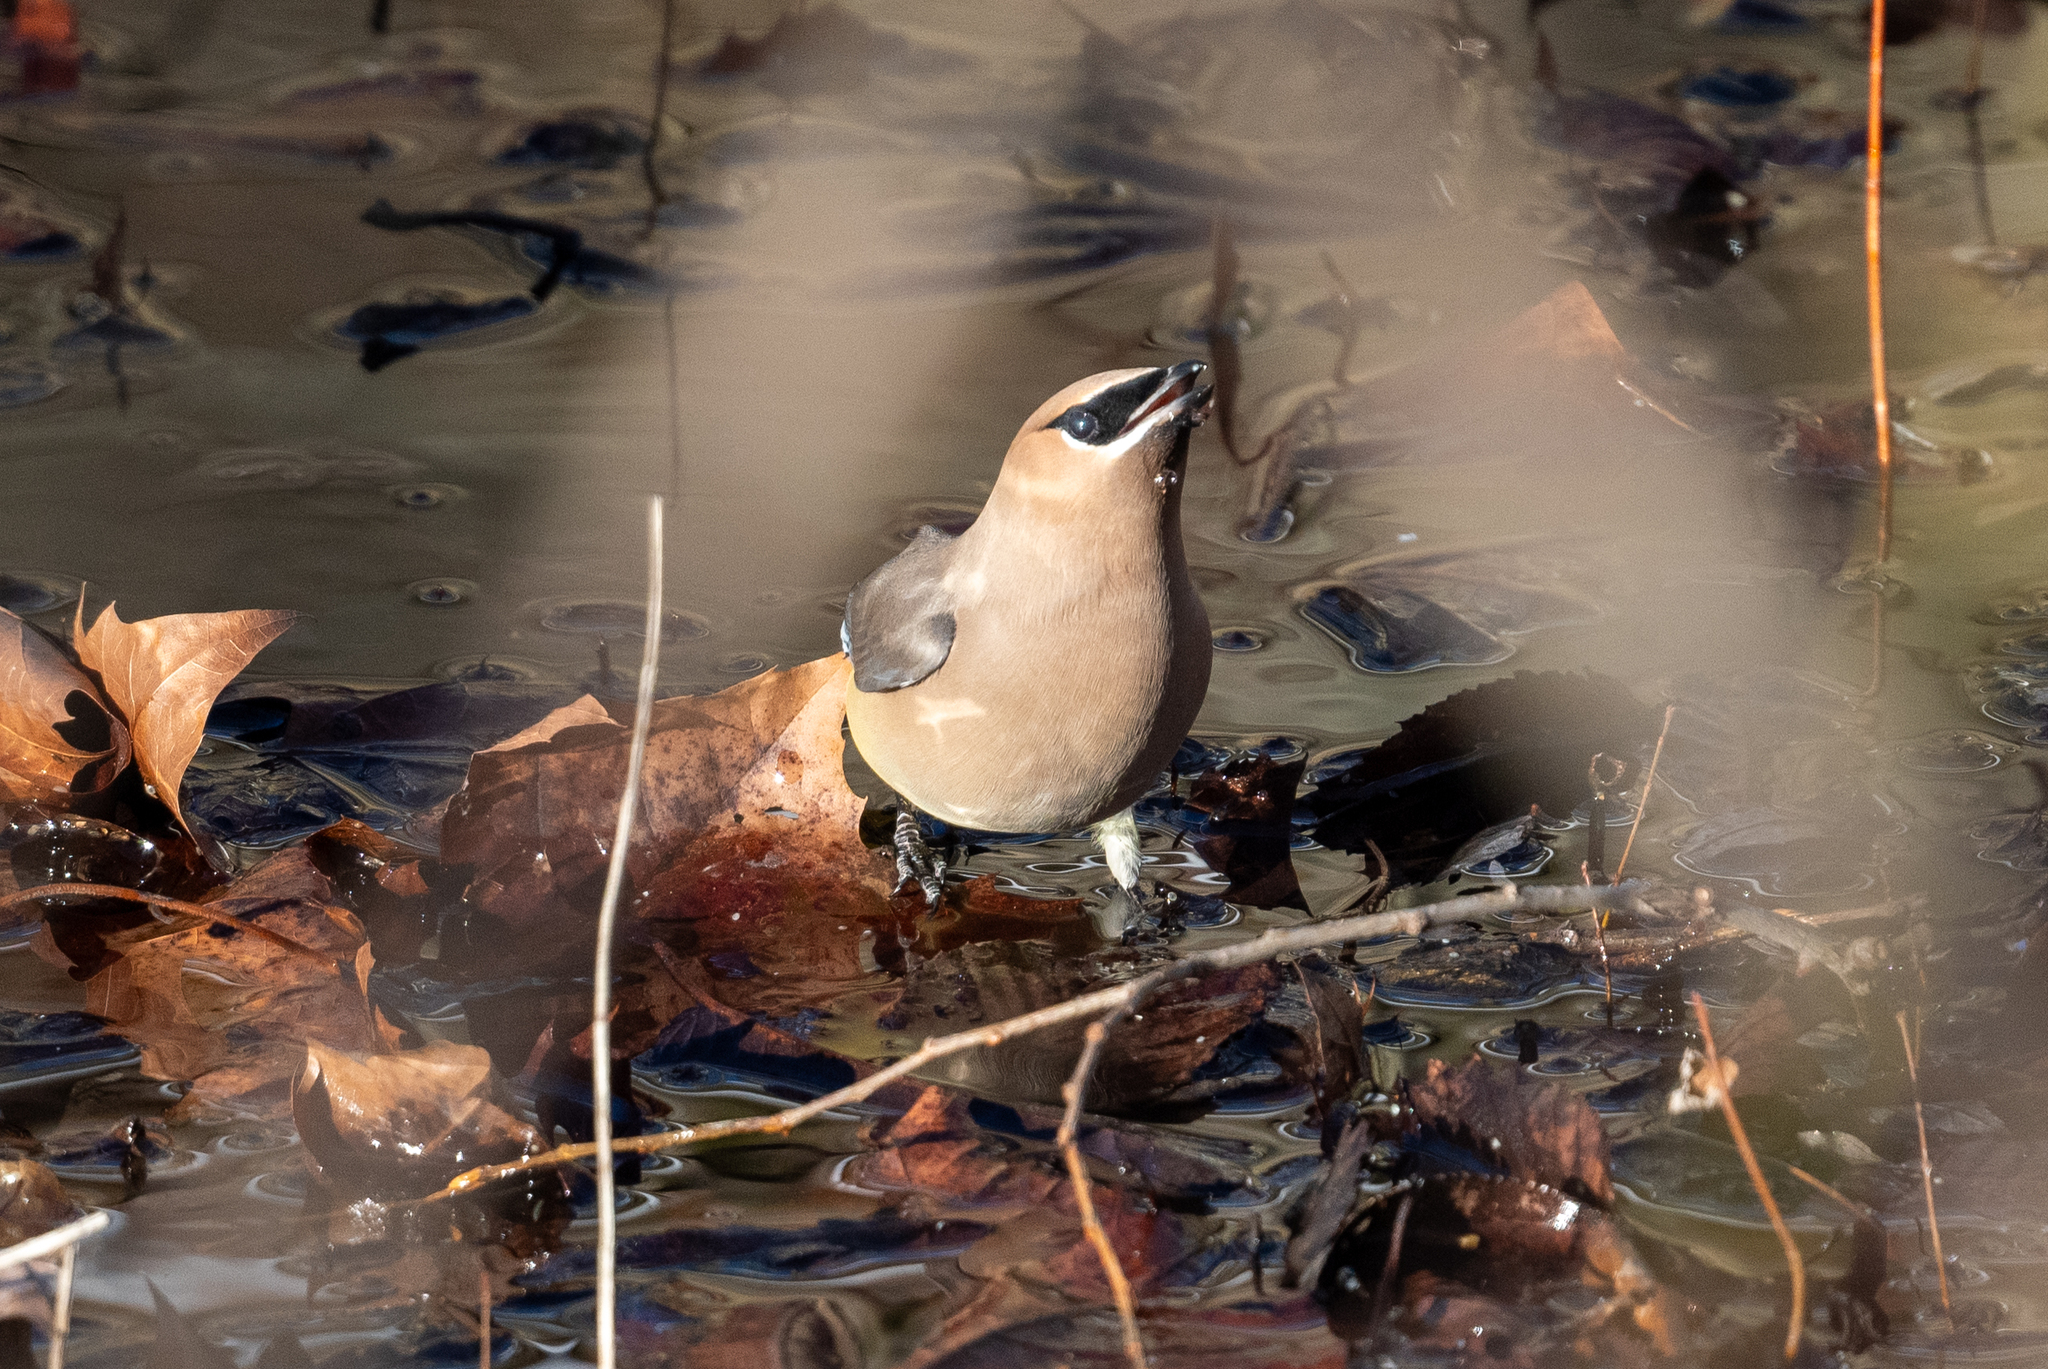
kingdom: Animalia
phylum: Chordata
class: Aves
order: Passeriformes
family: Bombycillidae
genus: Bombycilla
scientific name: Bombycilla cedrorum
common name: Cedar waxwing
